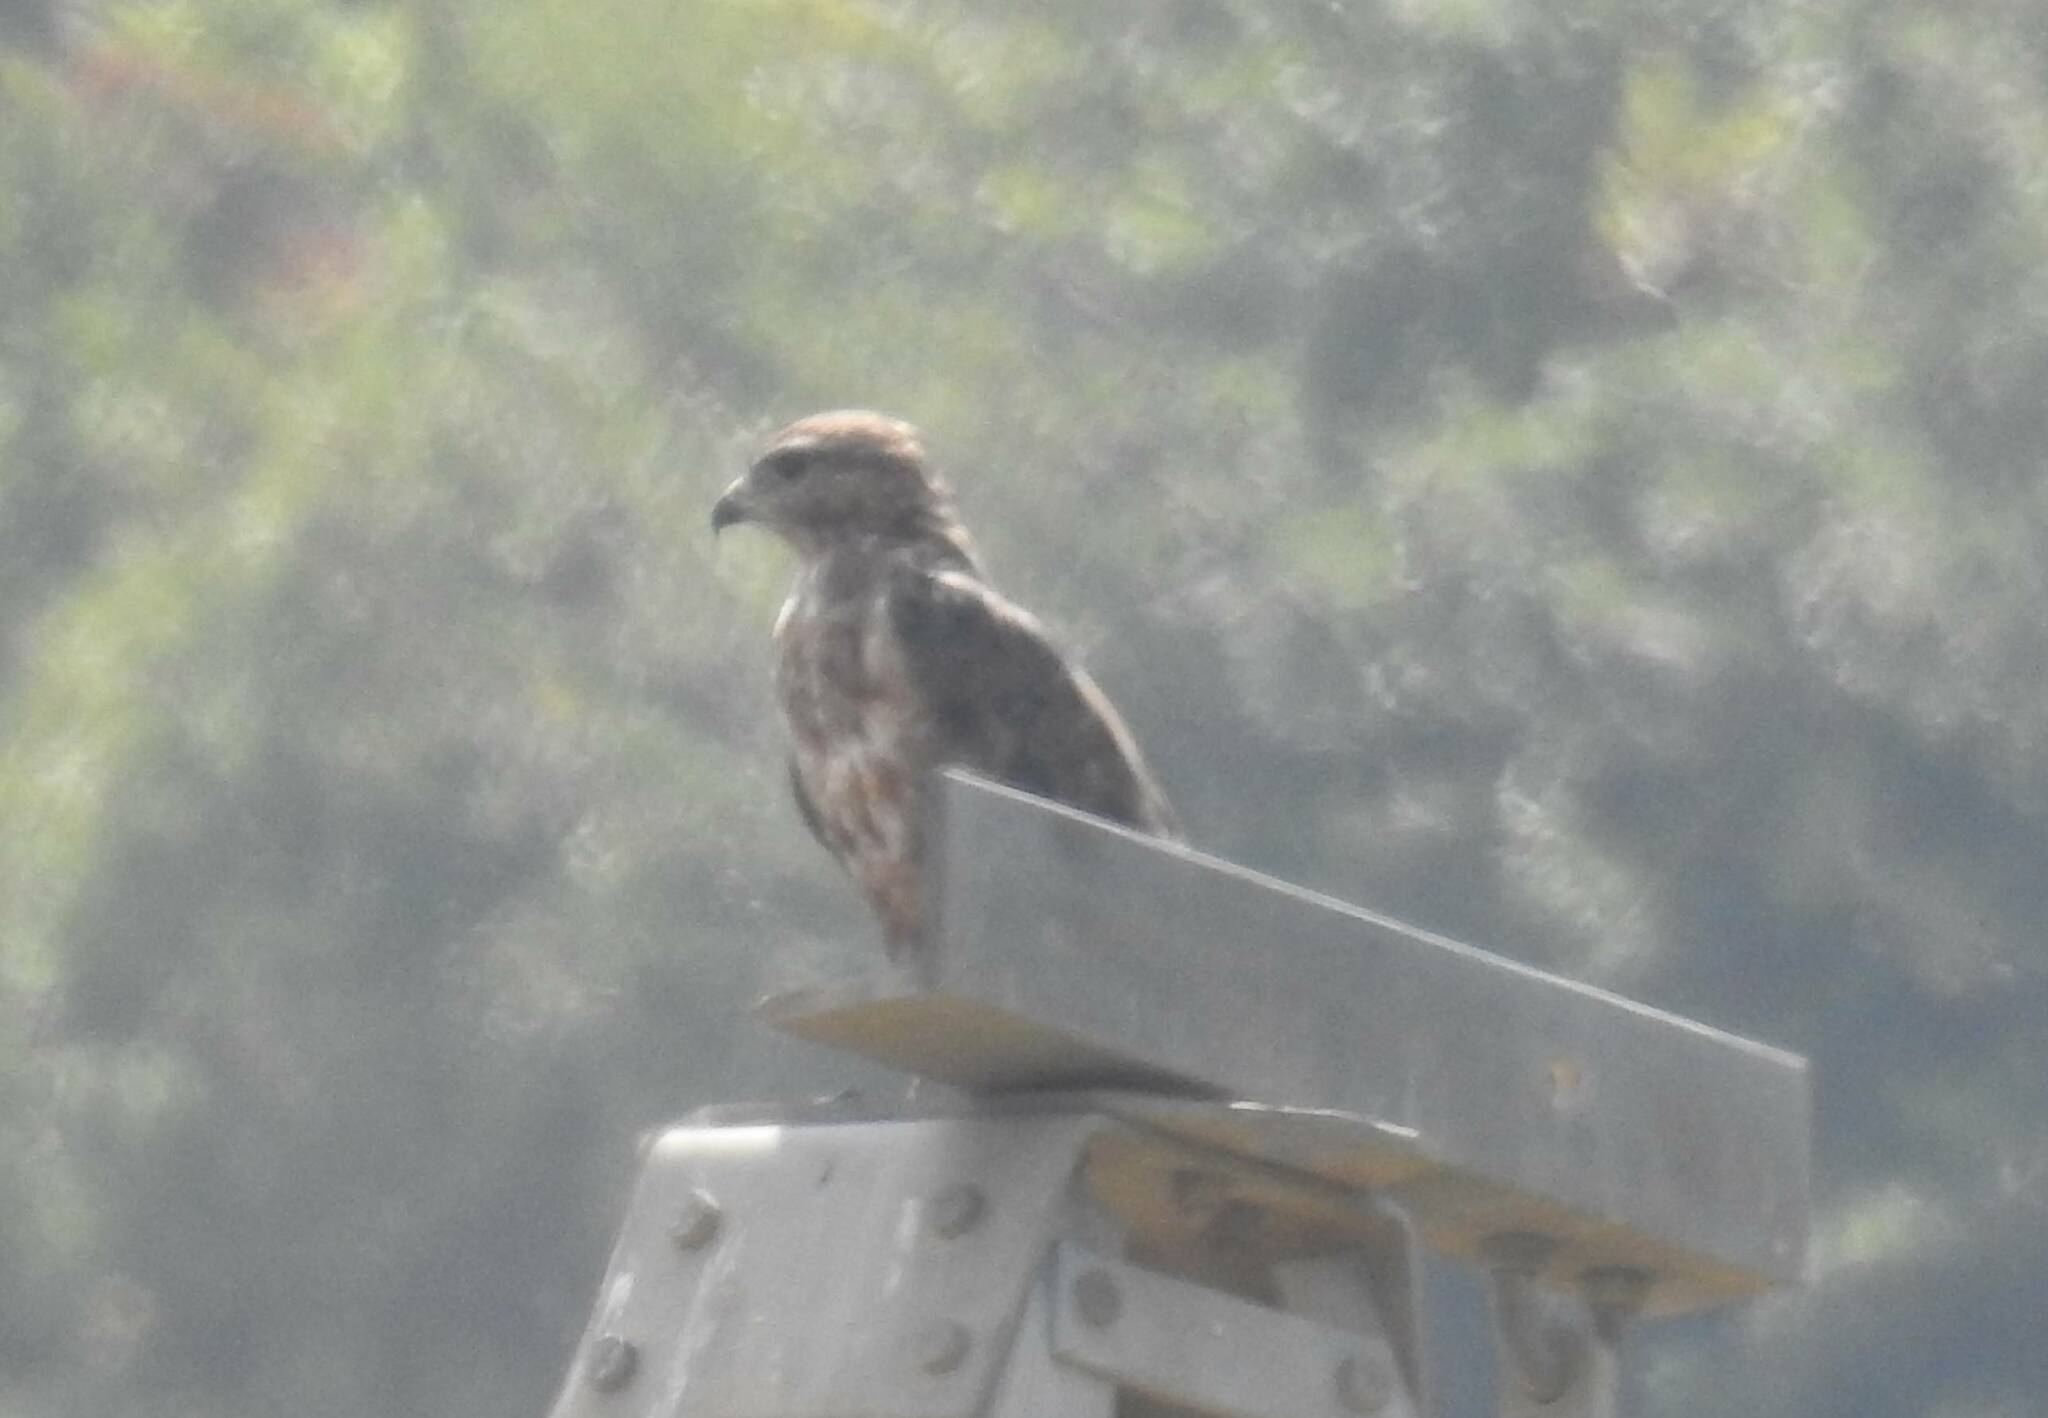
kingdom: Animalia
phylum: Chordata
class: Aves
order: Accipitriformes
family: Accipitridae
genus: Buteo
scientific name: Buteo rufinus
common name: Long-legged buzzard
